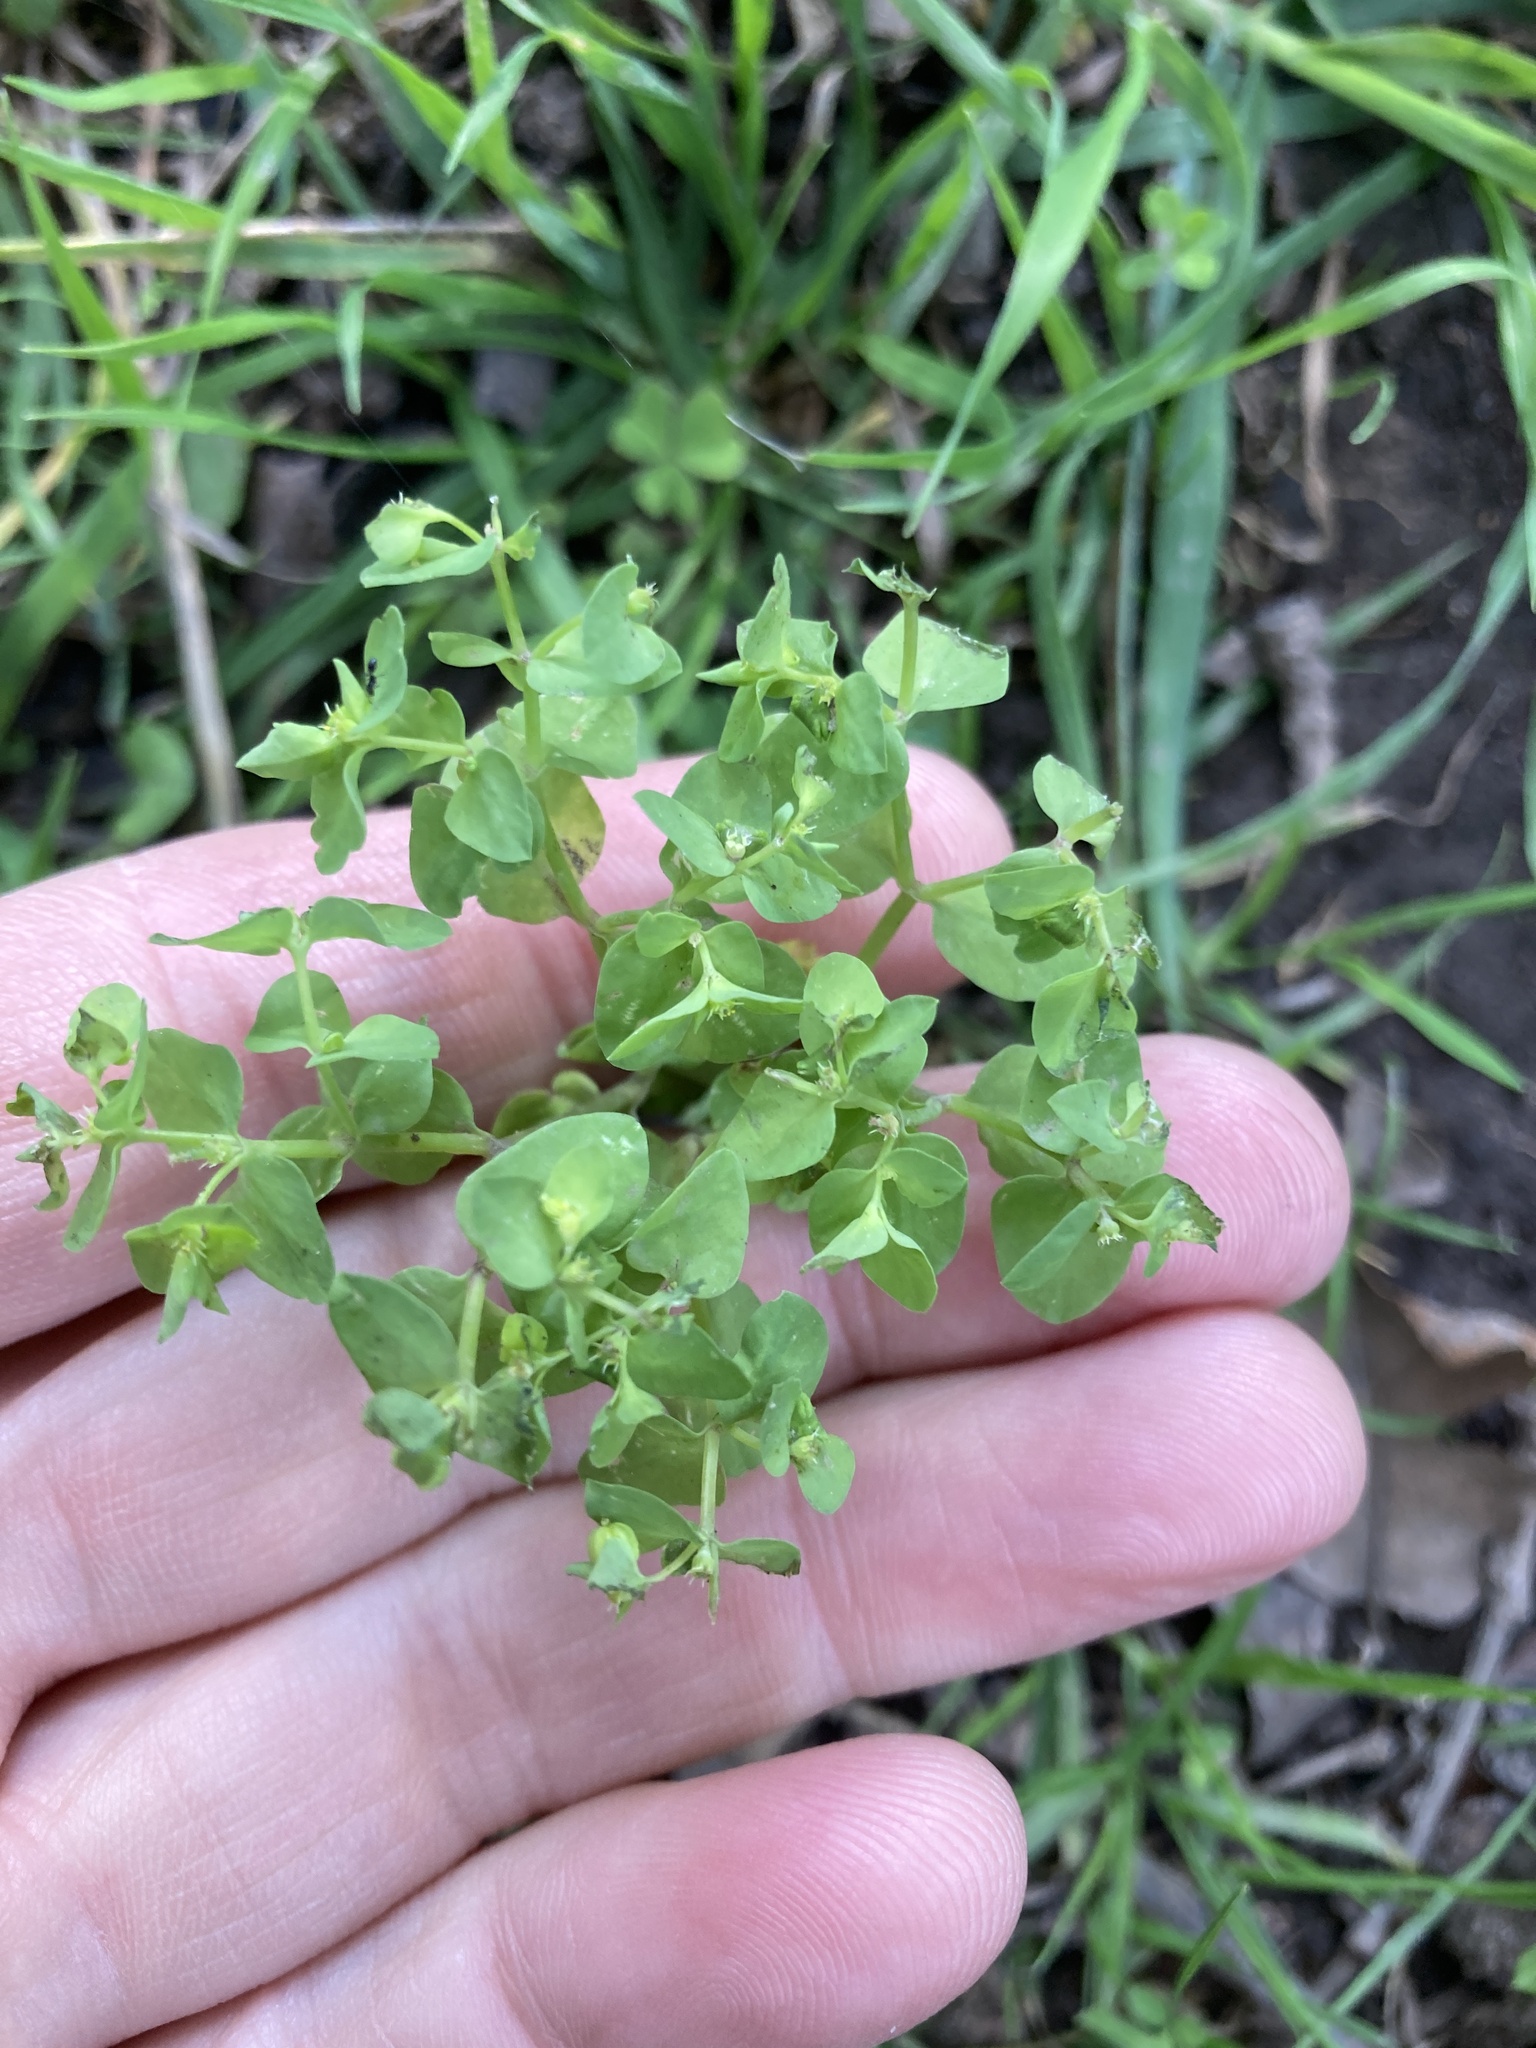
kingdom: Plantae
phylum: Tracheophyta
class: Magnoliopsida
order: Malpighiales
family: Euphorbiaceae
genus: Euphorbia
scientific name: Euphorbia peplus
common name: Petty spurge
